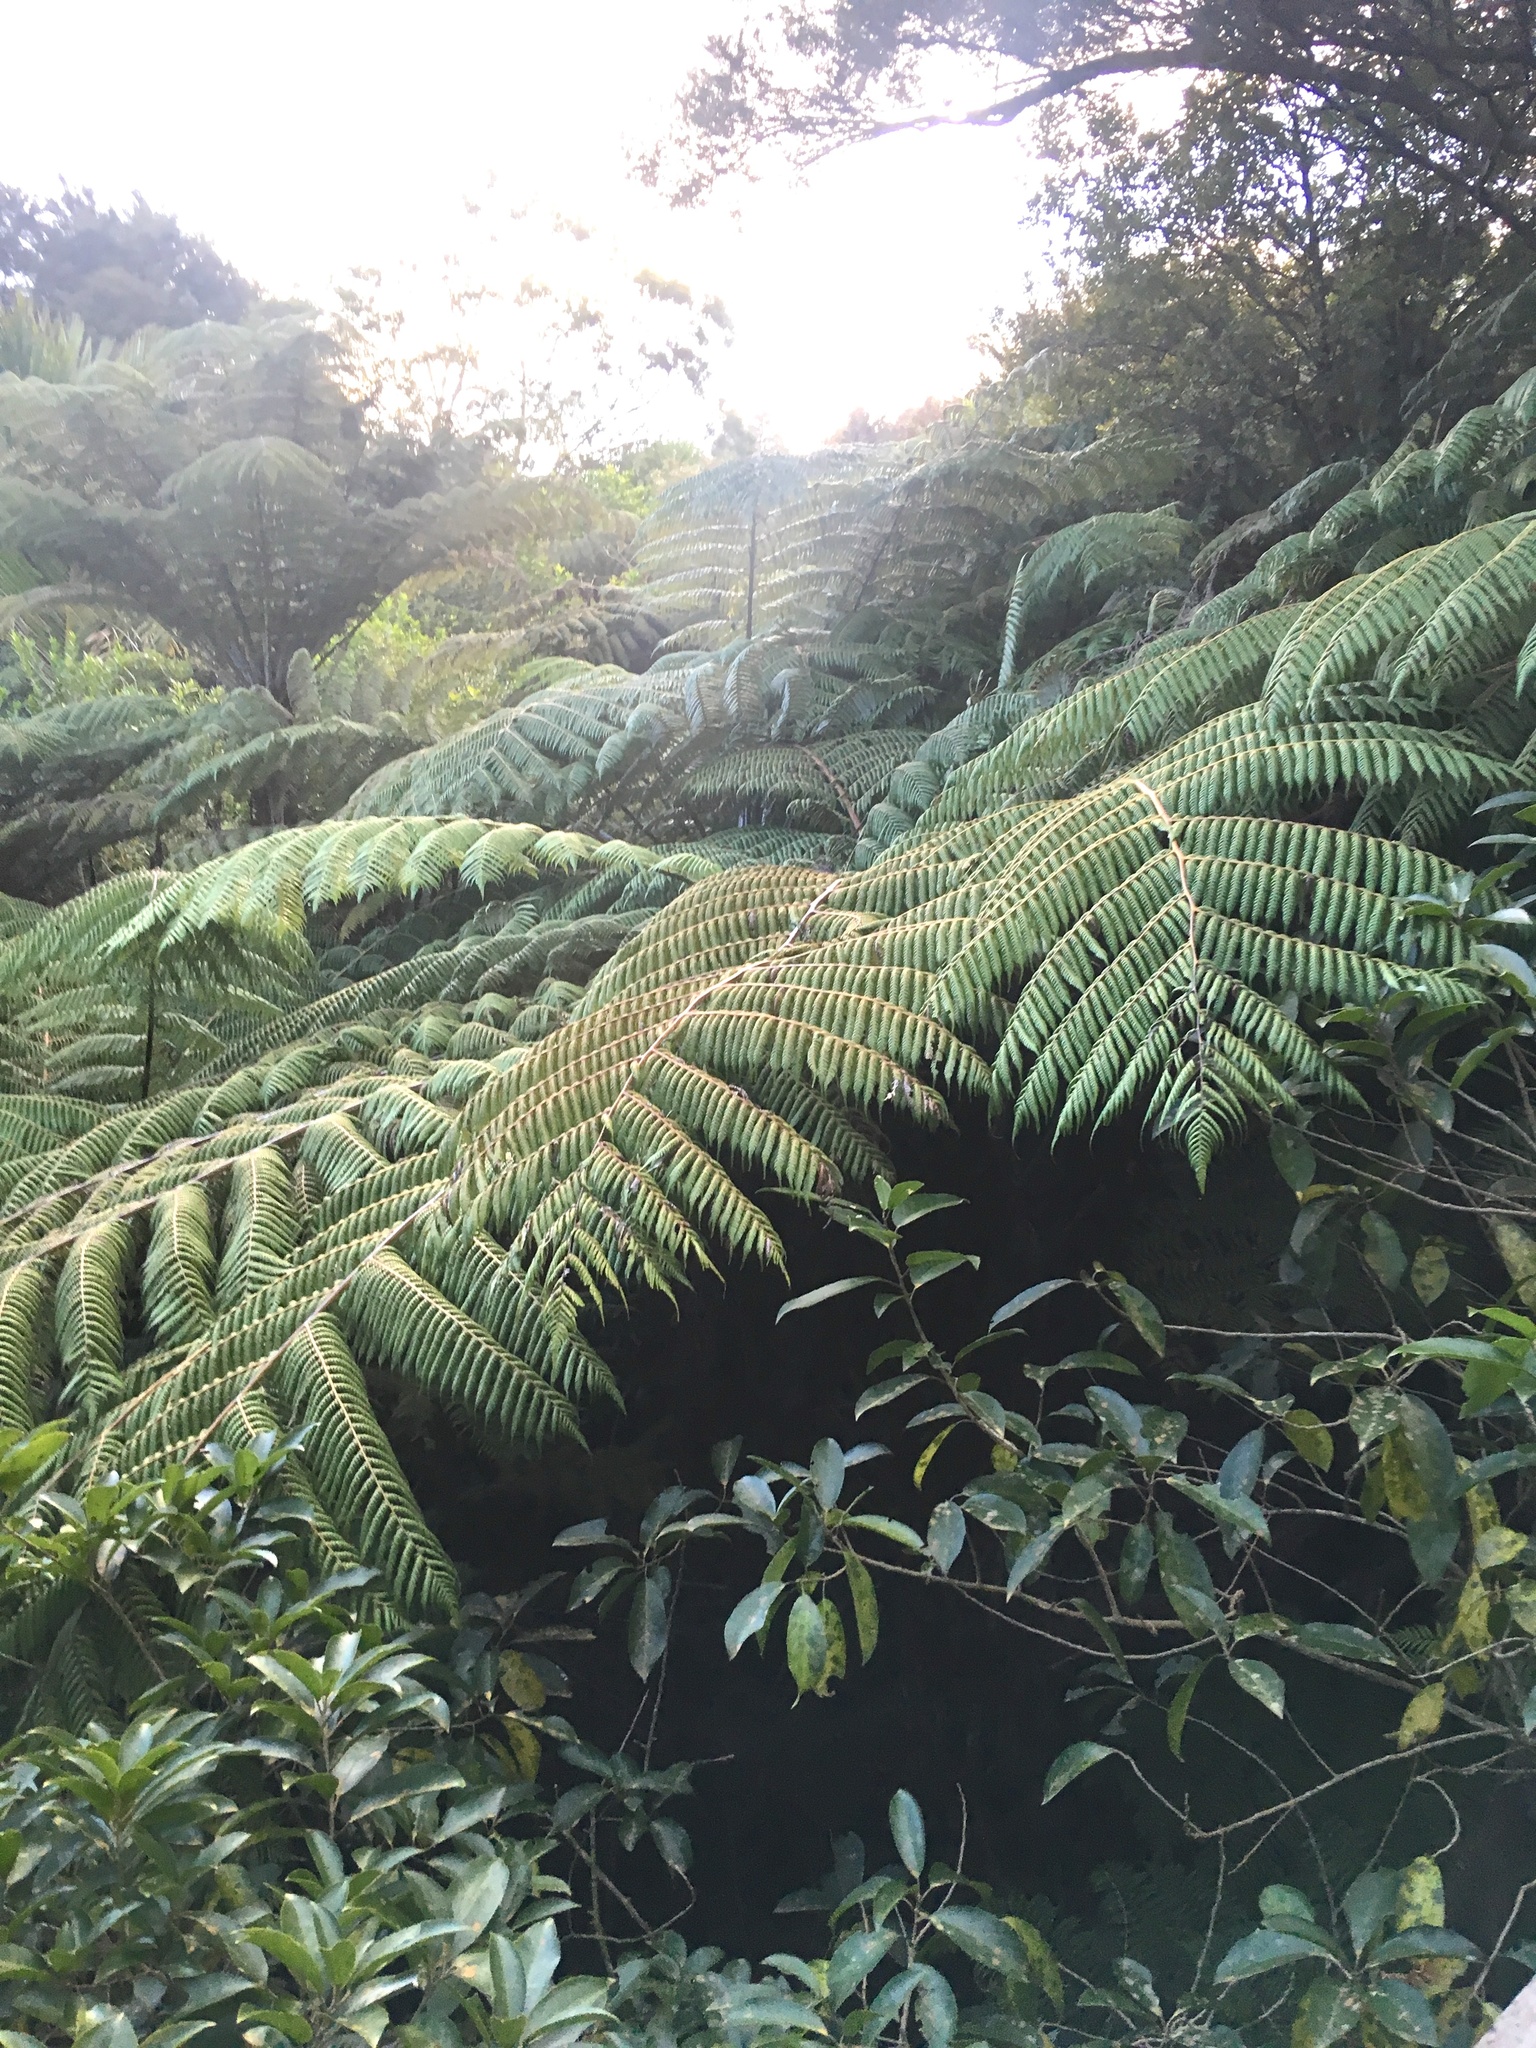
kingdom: Plantae
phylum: Tracheophyta
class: Polypodiopsida
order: Cyatheales
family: Cyatheaceae
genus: Alsophila
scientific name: Alsophila dealbata
